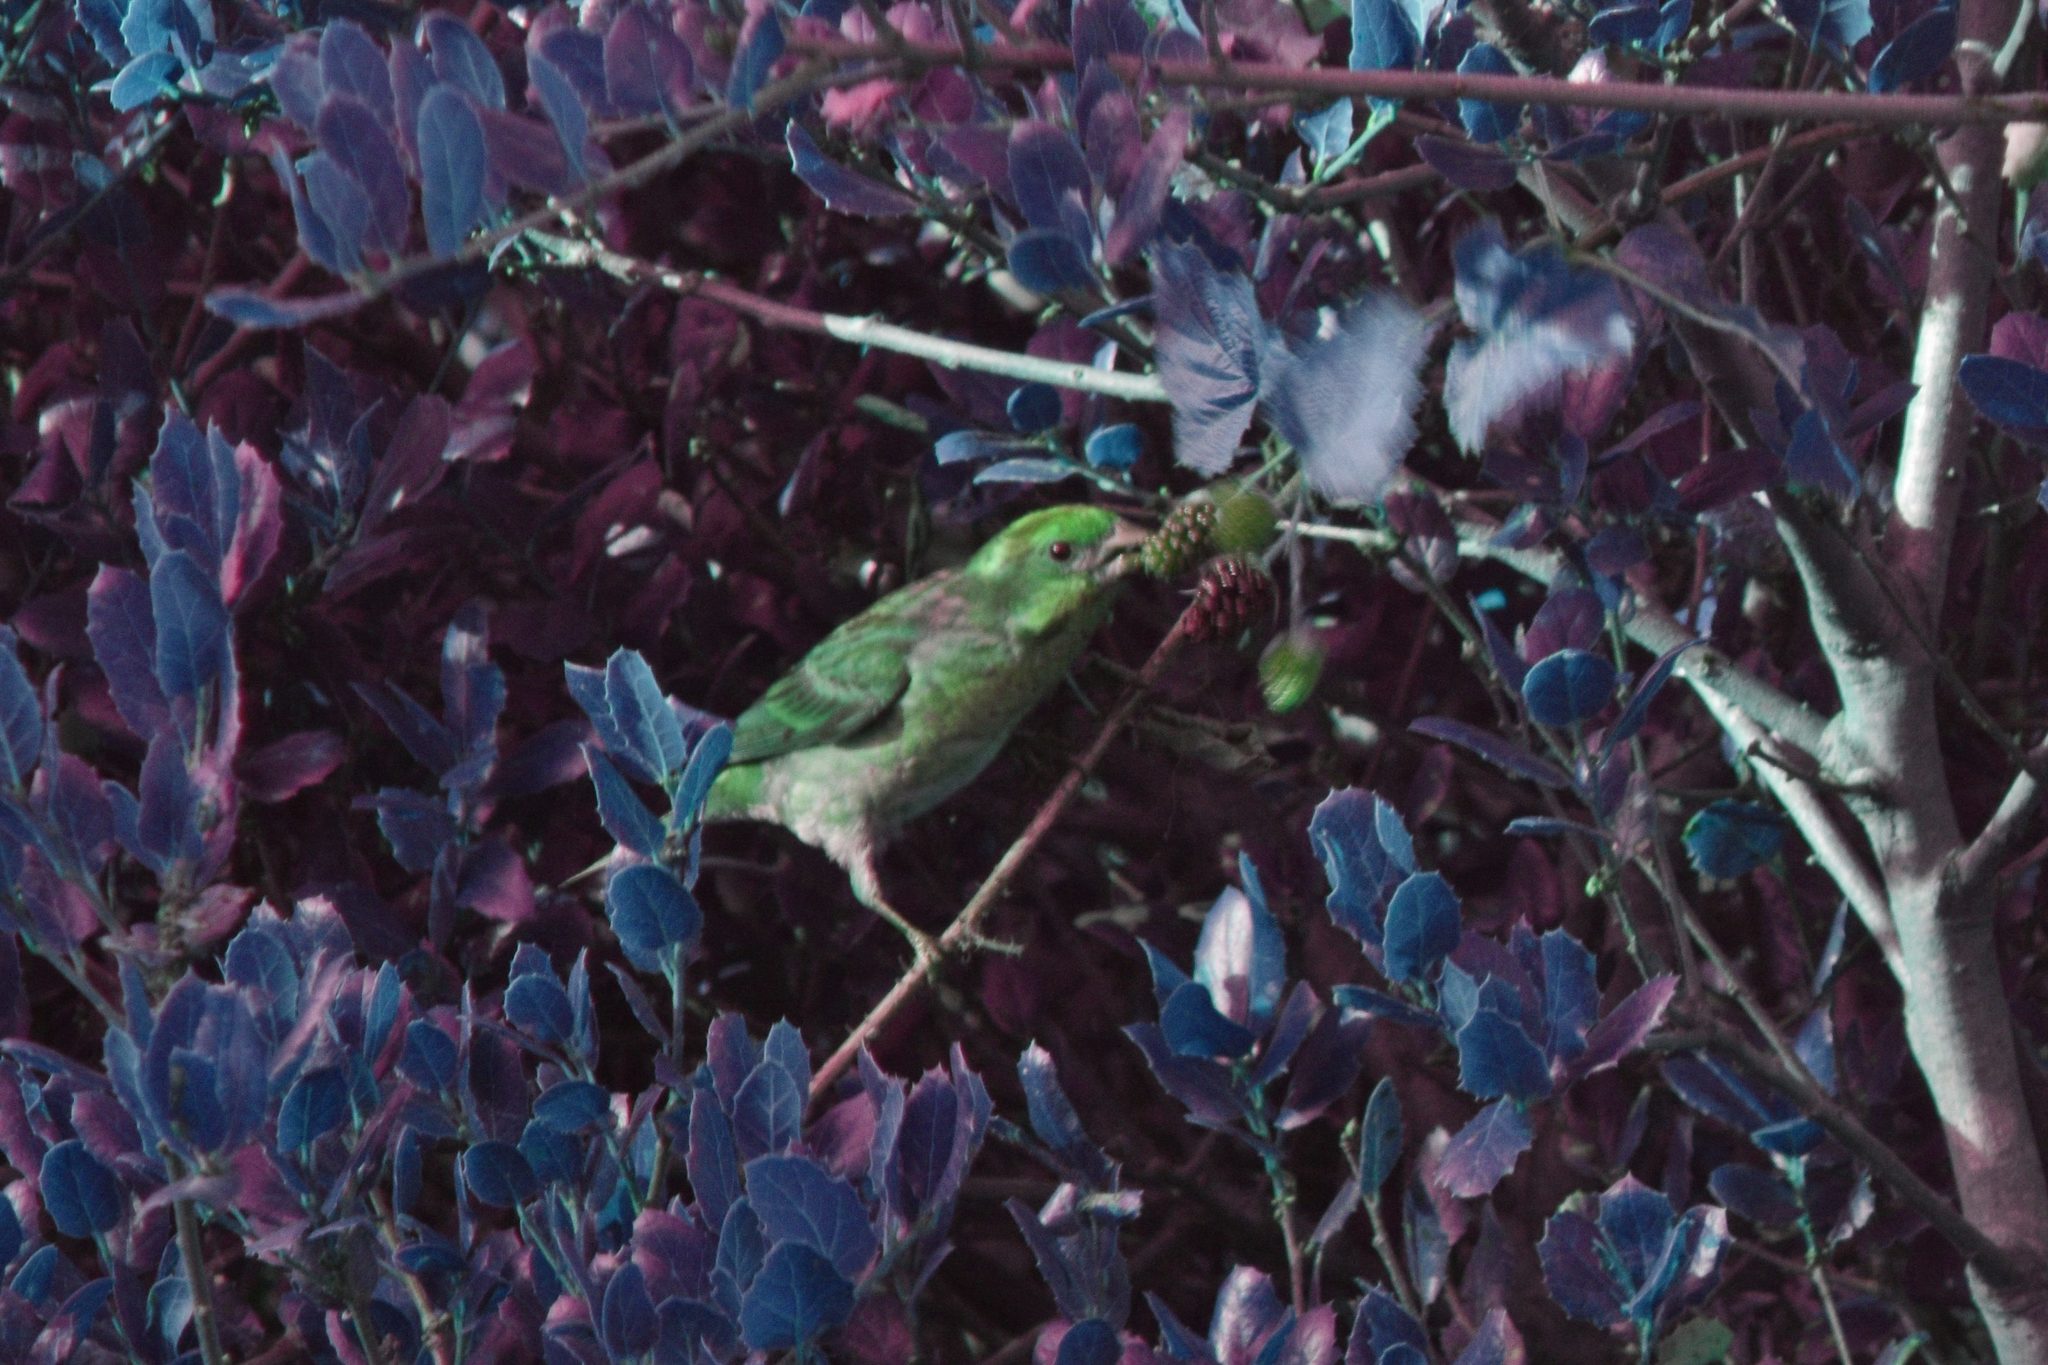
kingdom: Animalia
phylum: Chordata
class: Aves
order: Passeriformes
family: Fringillidae
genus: Haemorhous
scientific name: Haemorhous purpureus
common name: Purple finch
